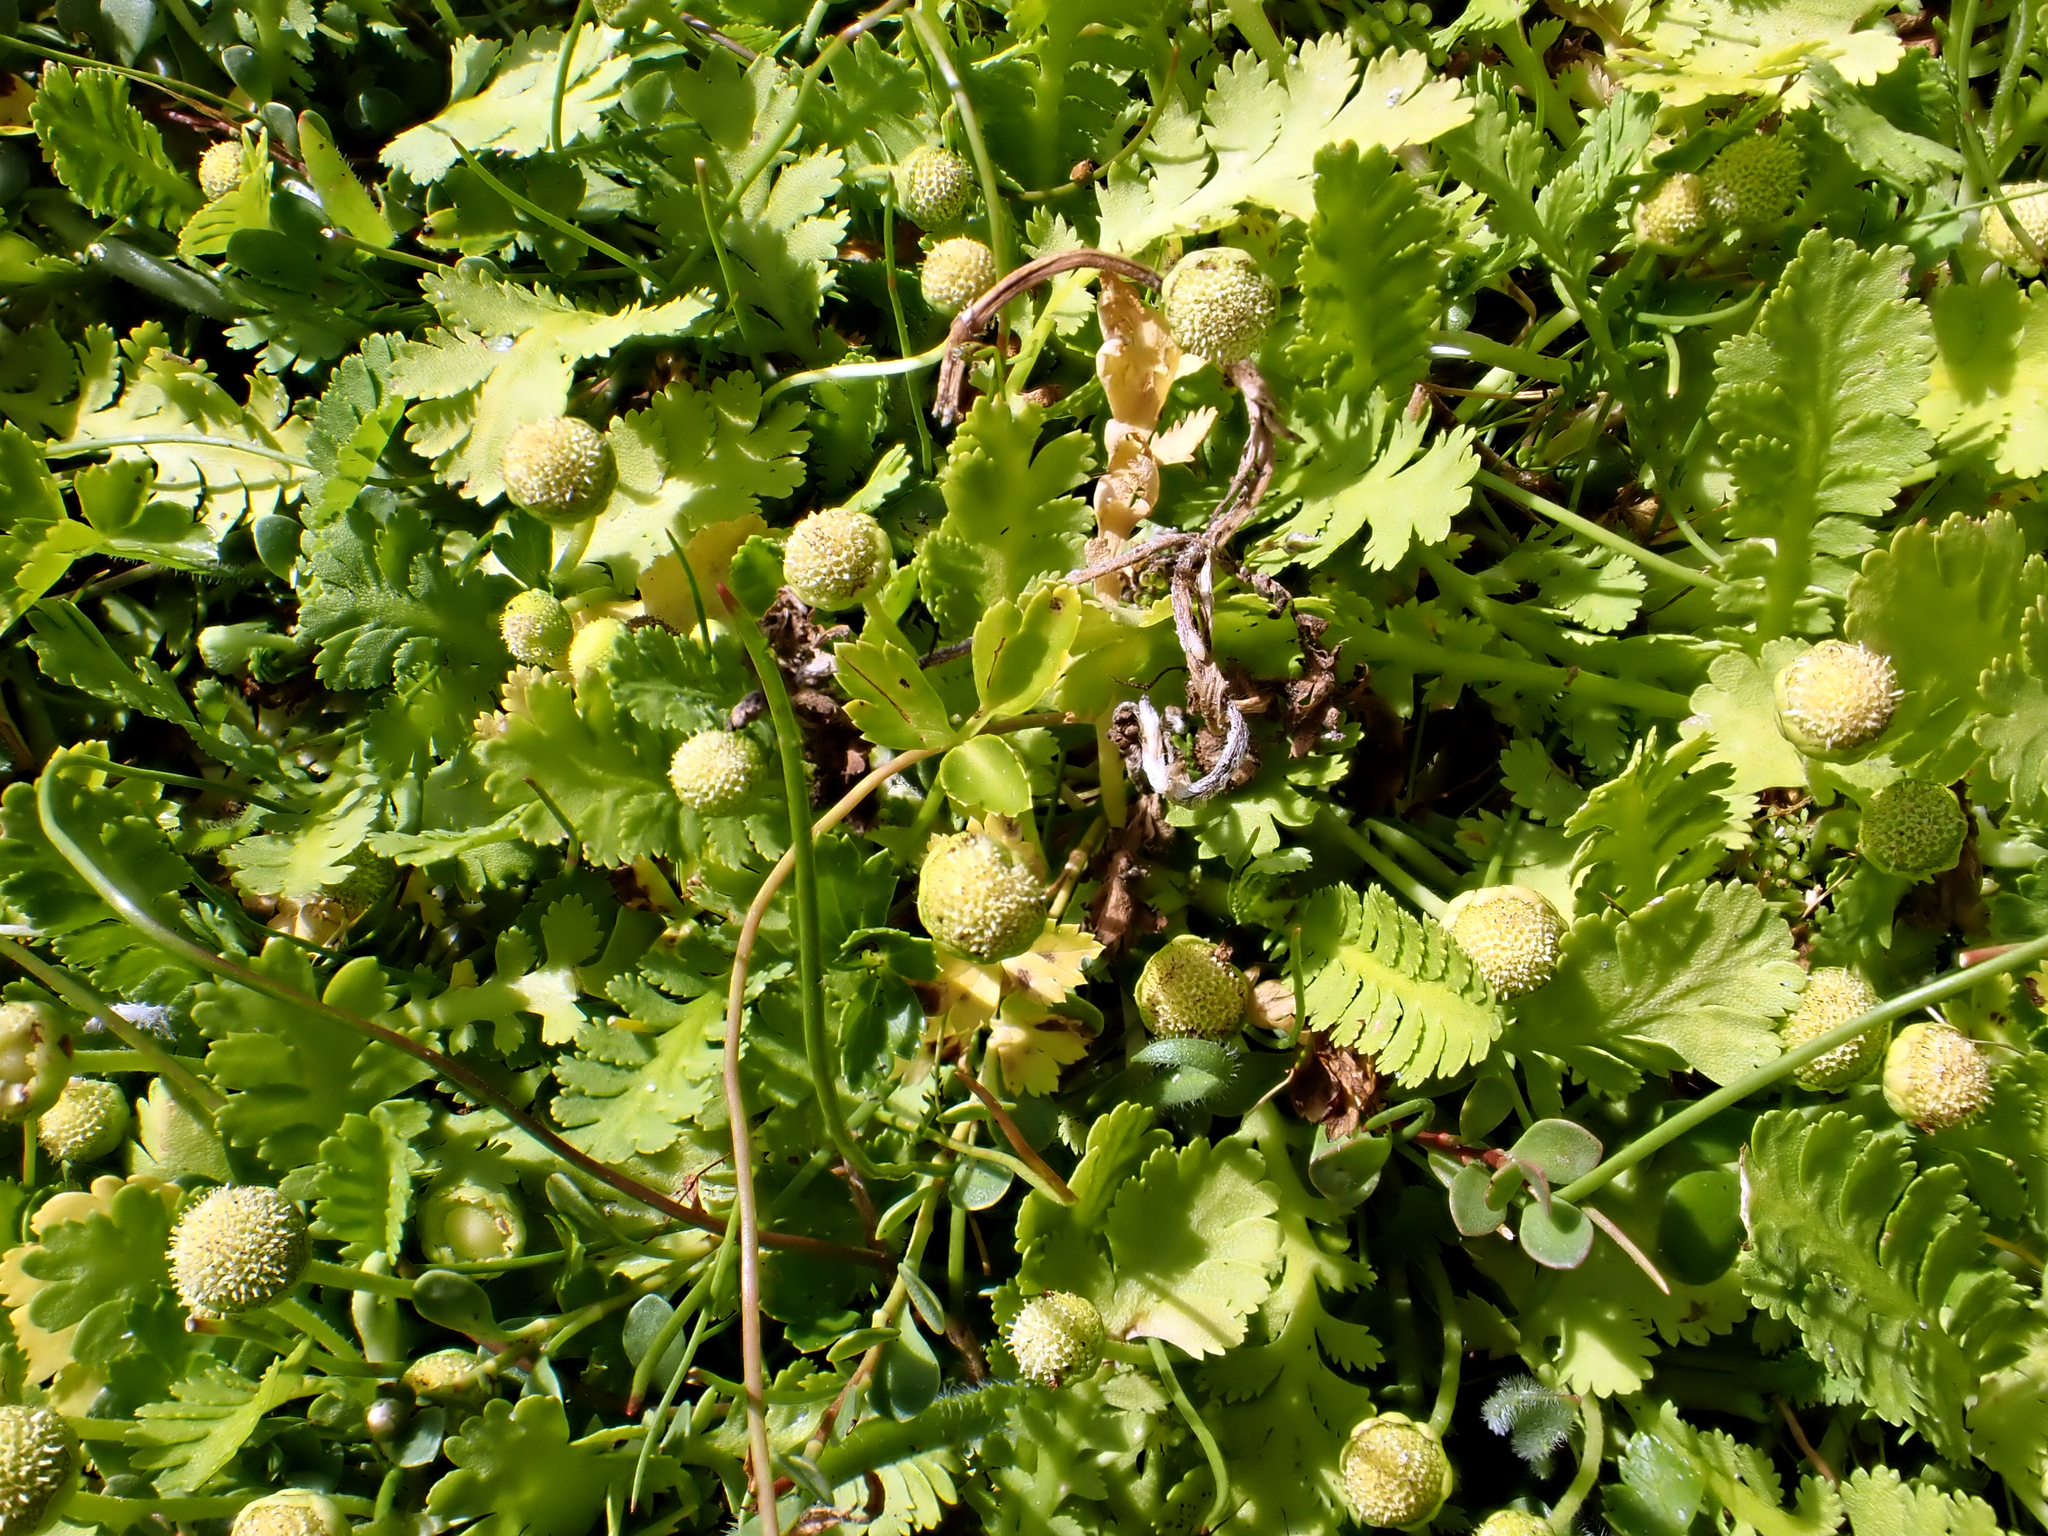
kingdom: Plantae
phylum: Tracheophyta
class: Magnoliopsida
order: Asterales
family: Asteraceae
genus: Leptinella
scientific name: Leptinella potentillina
